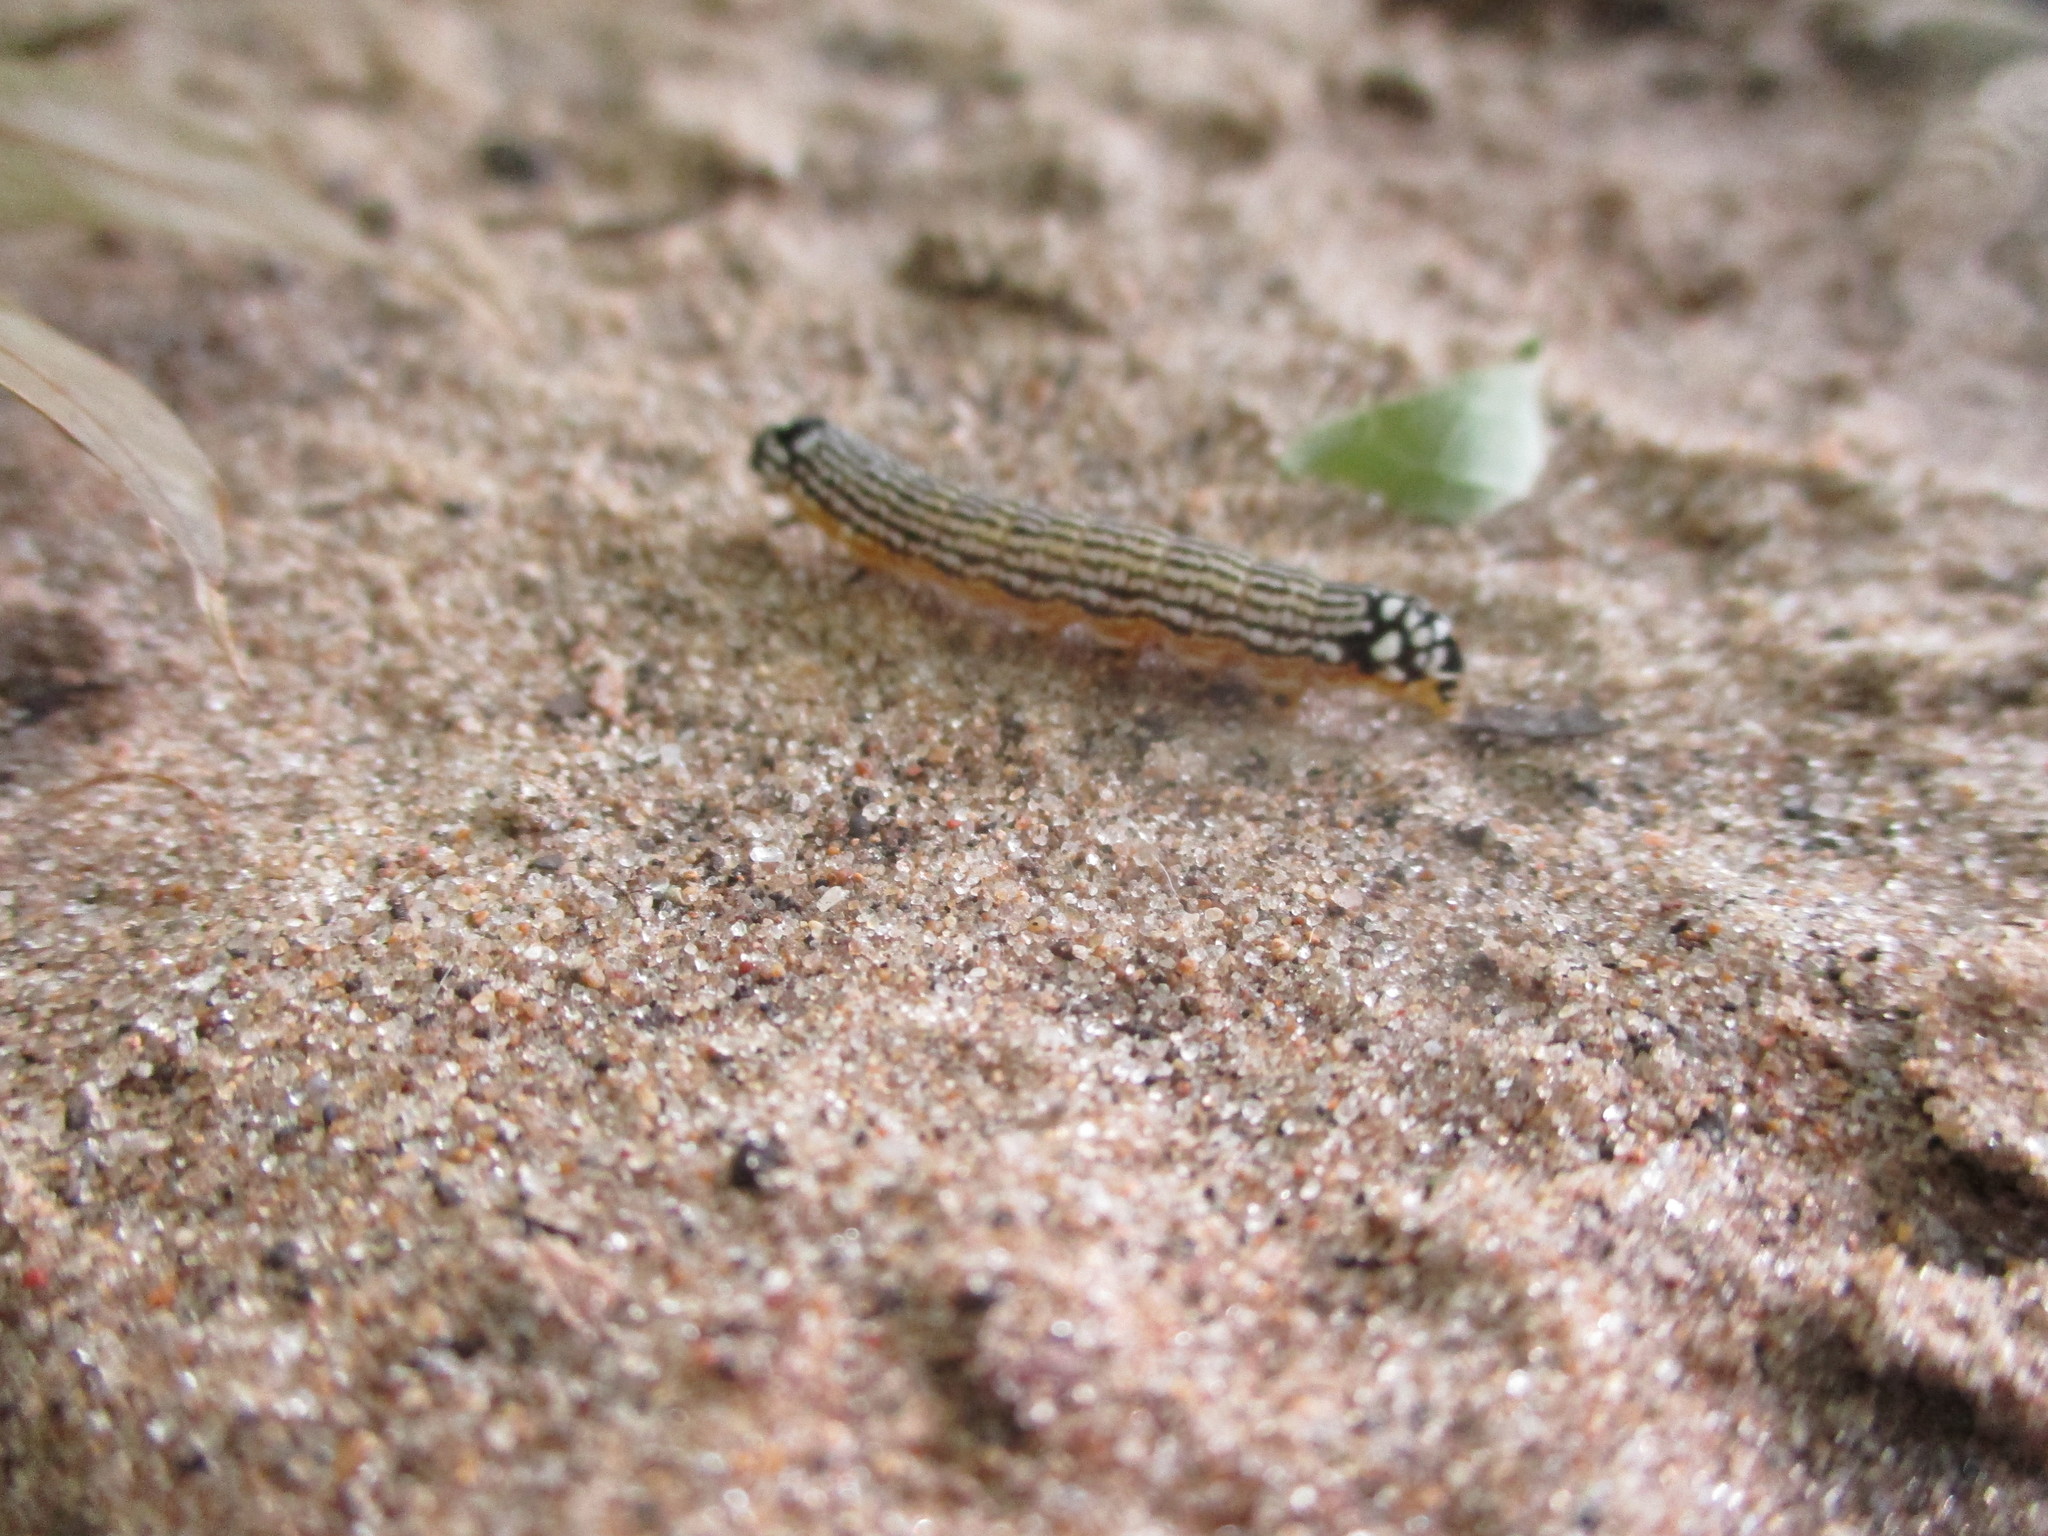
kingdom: Animalia
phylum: Arthropoda
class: Insecta
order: Lepidoptera
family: Noctuidae
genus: Phosphila
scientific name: Phosphila turbulenta
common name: Turbulent phosphila moth
